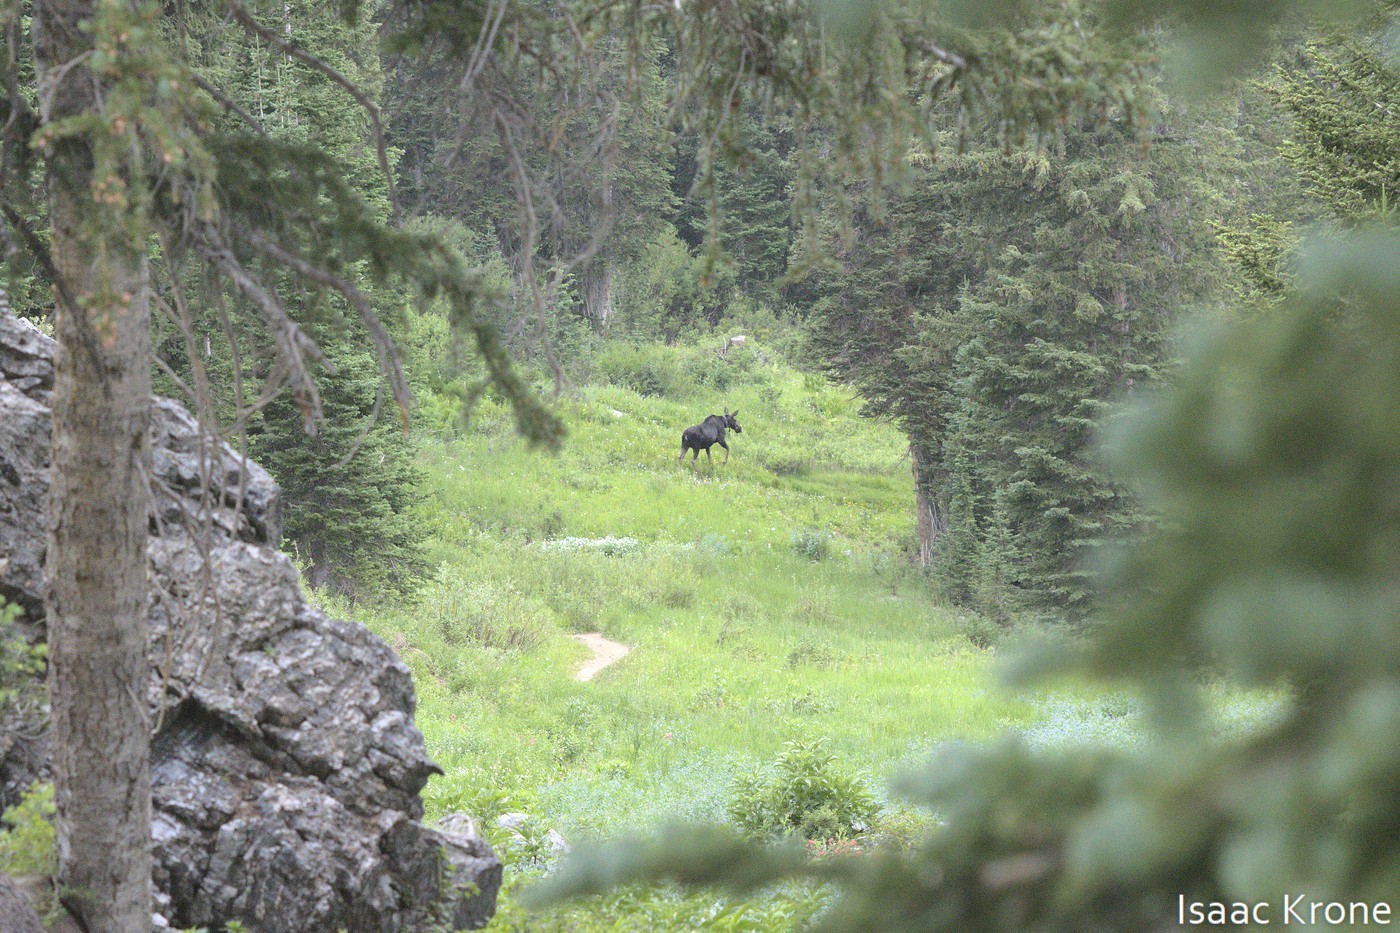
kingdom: Animalia
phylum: Chordata
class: Mammalia
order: Artiodactyla
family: Cervidae
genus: Alces
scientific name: Alces alces
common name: Moose
